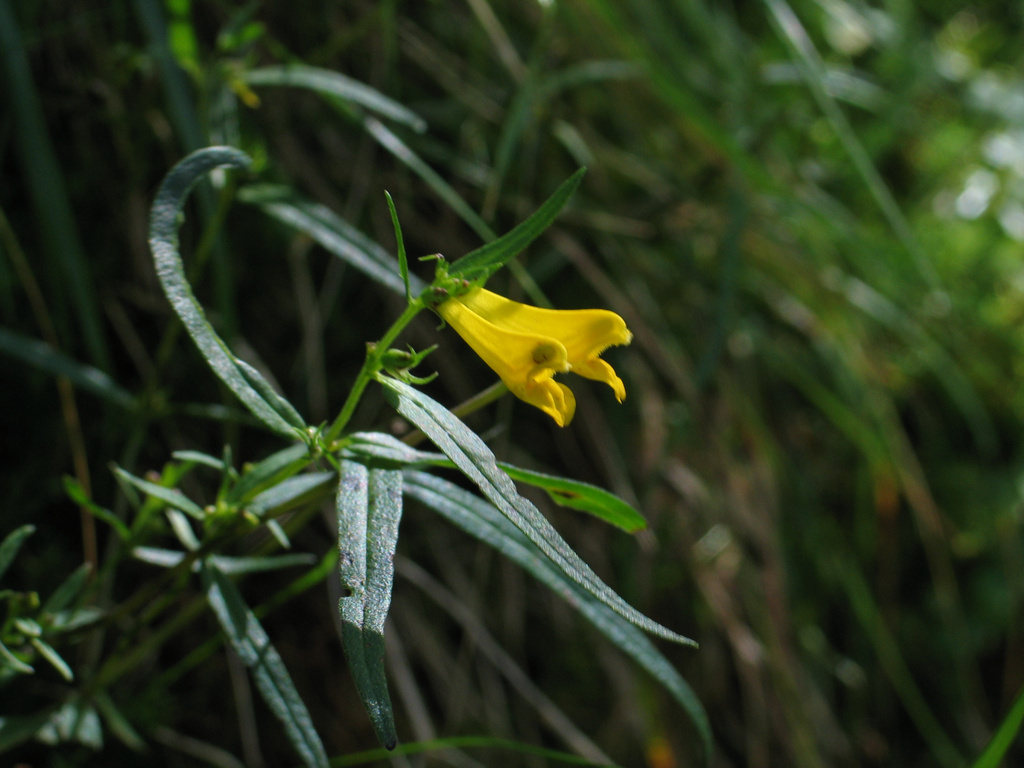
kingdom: Plantae
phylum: Tracheophyta
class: Magnoliopsida
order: Lamiales
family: Orobanchaceae
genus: Melampyrum
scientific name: Melampyrum pratense
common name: Common cow-wheat
